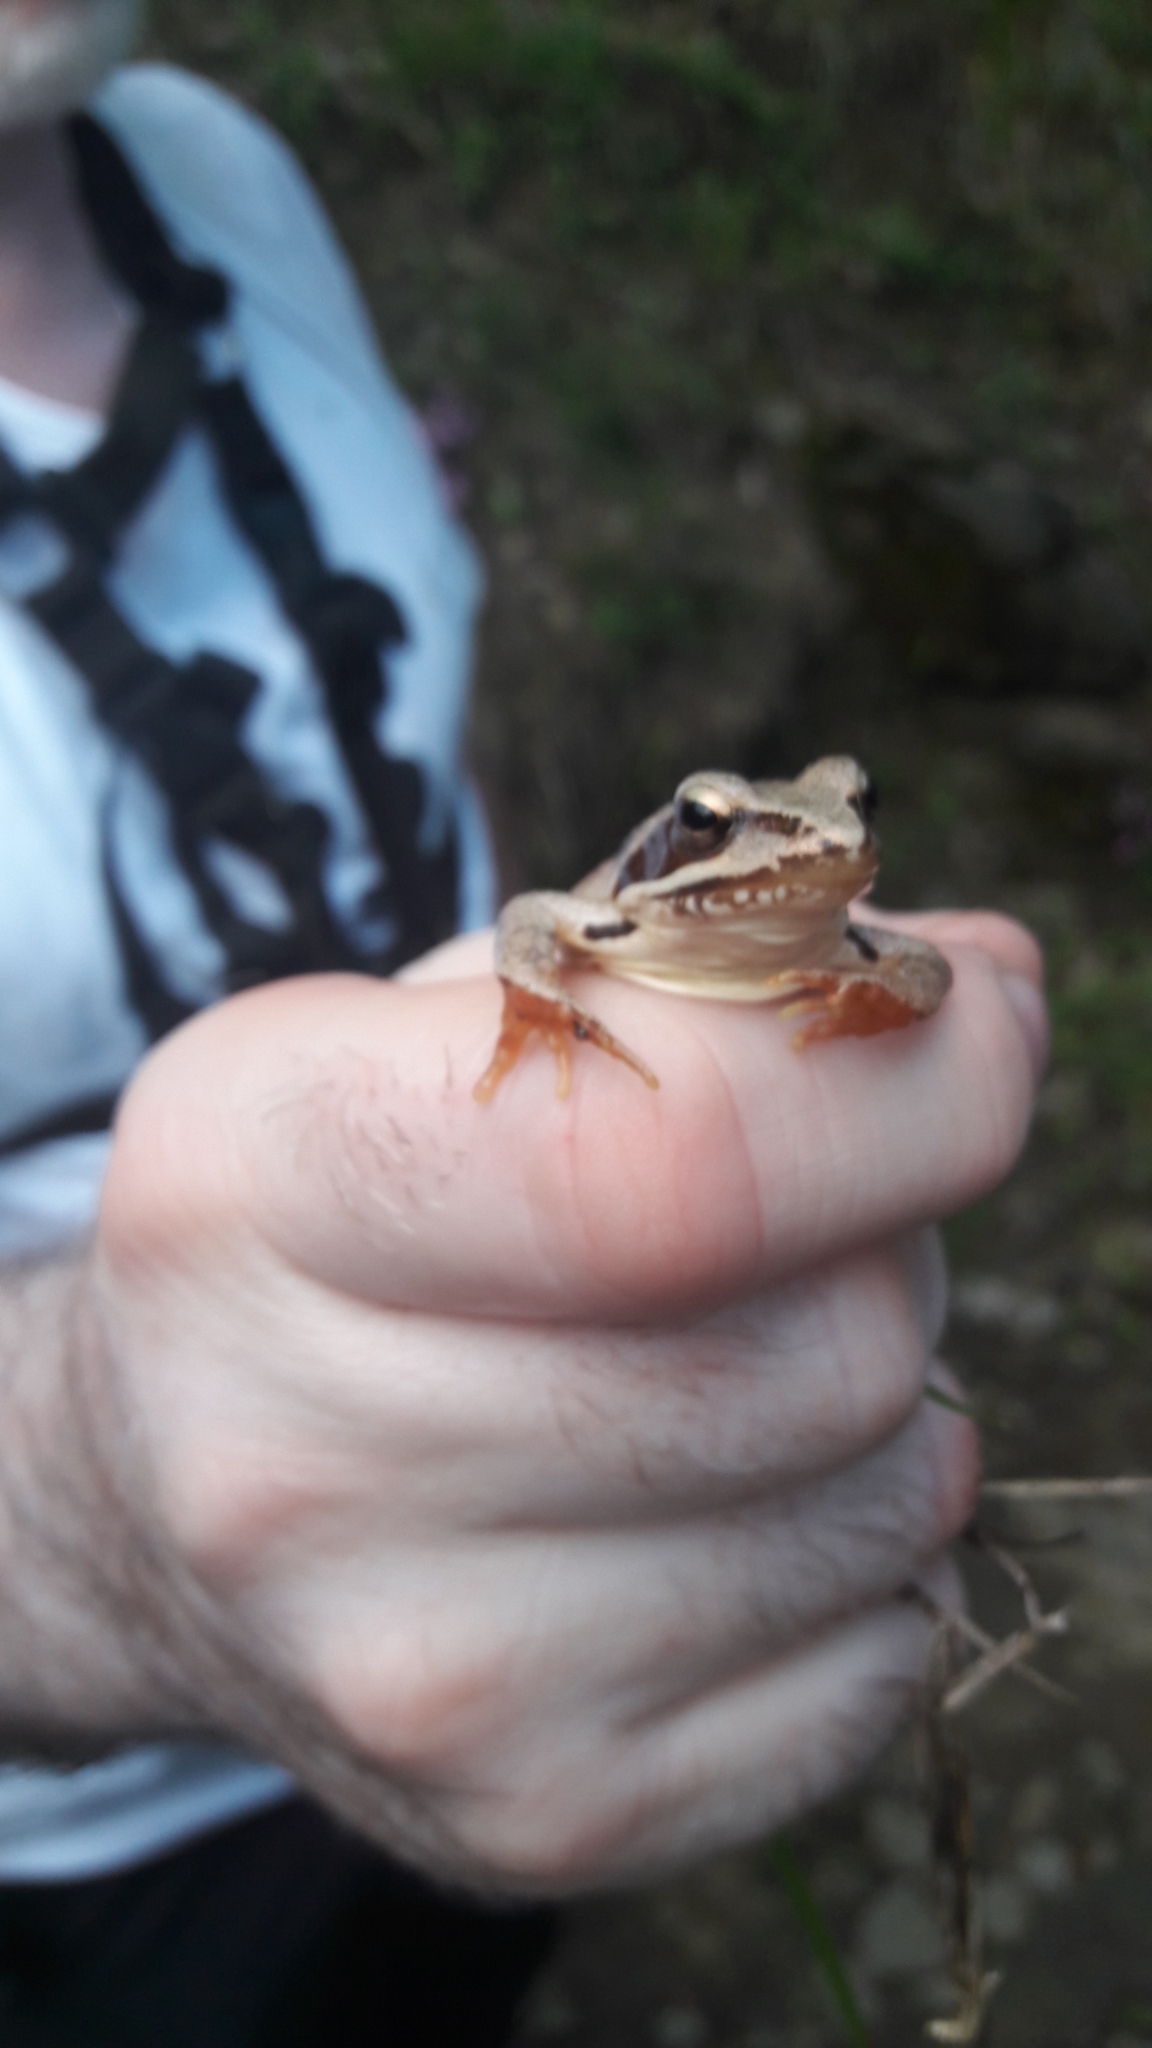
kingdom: Animalia
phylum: Chordata
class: Amphibia
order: Anura
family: Ranidae
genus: Rana
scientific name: Rana dalmatina
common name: Agile frog
